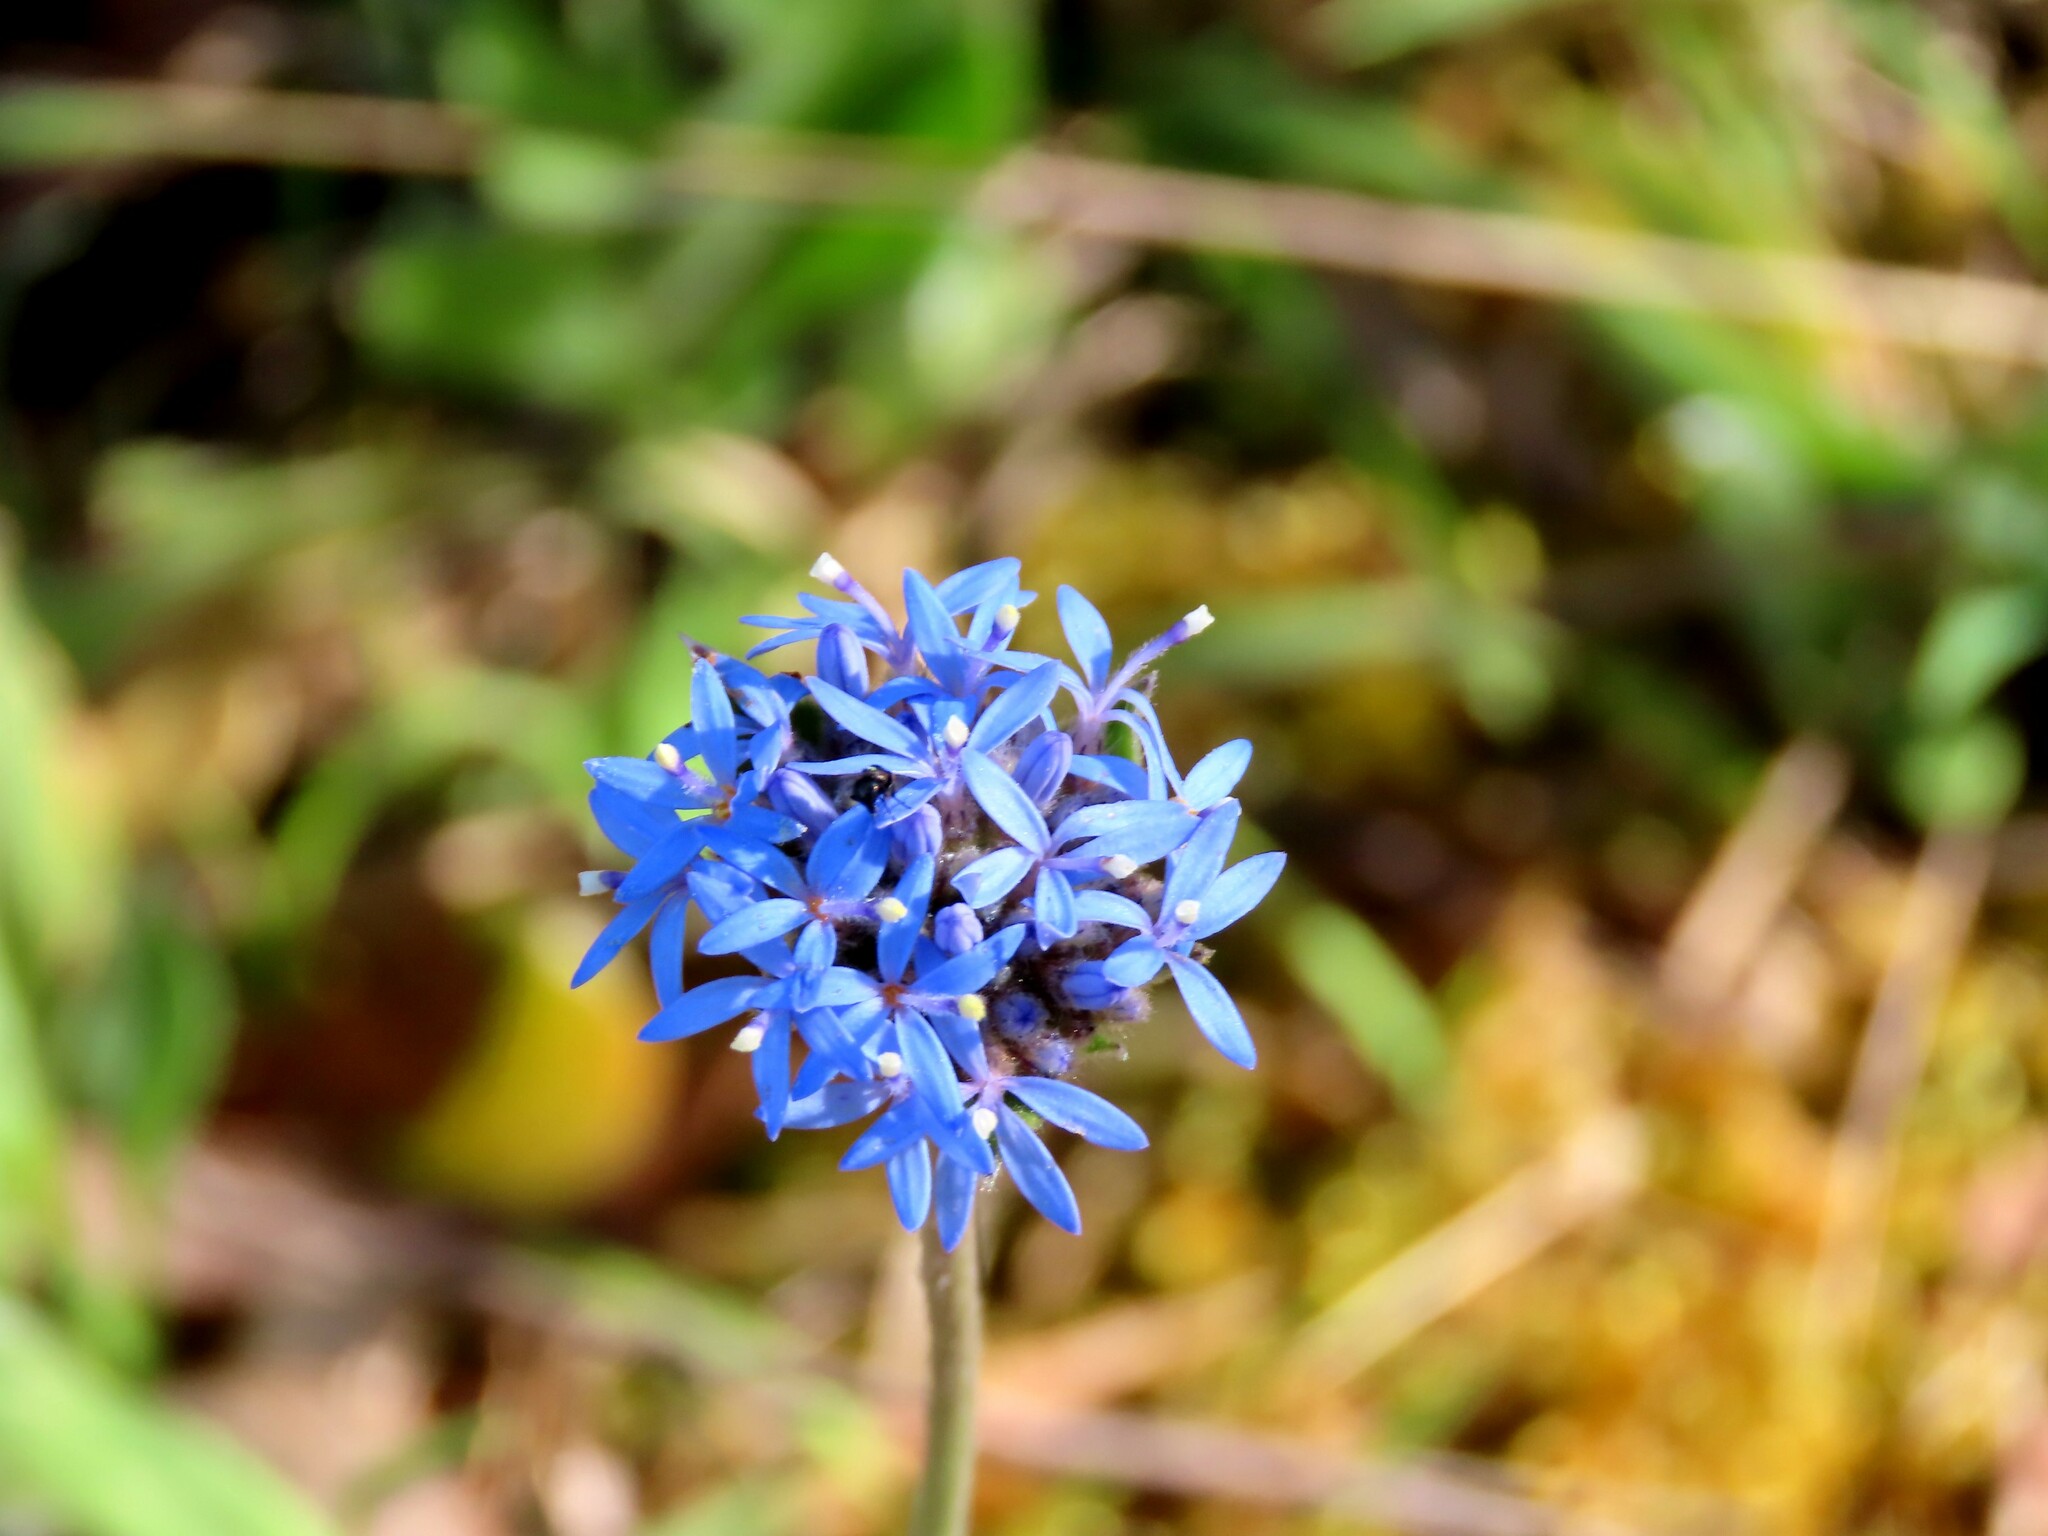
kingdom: Plantae
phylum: Tracheophyta
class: Magnoliopsida
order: Asterales
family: Goodeniaceae
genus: Brunonia
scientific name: Brunonia australis
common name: Blue pincushion
